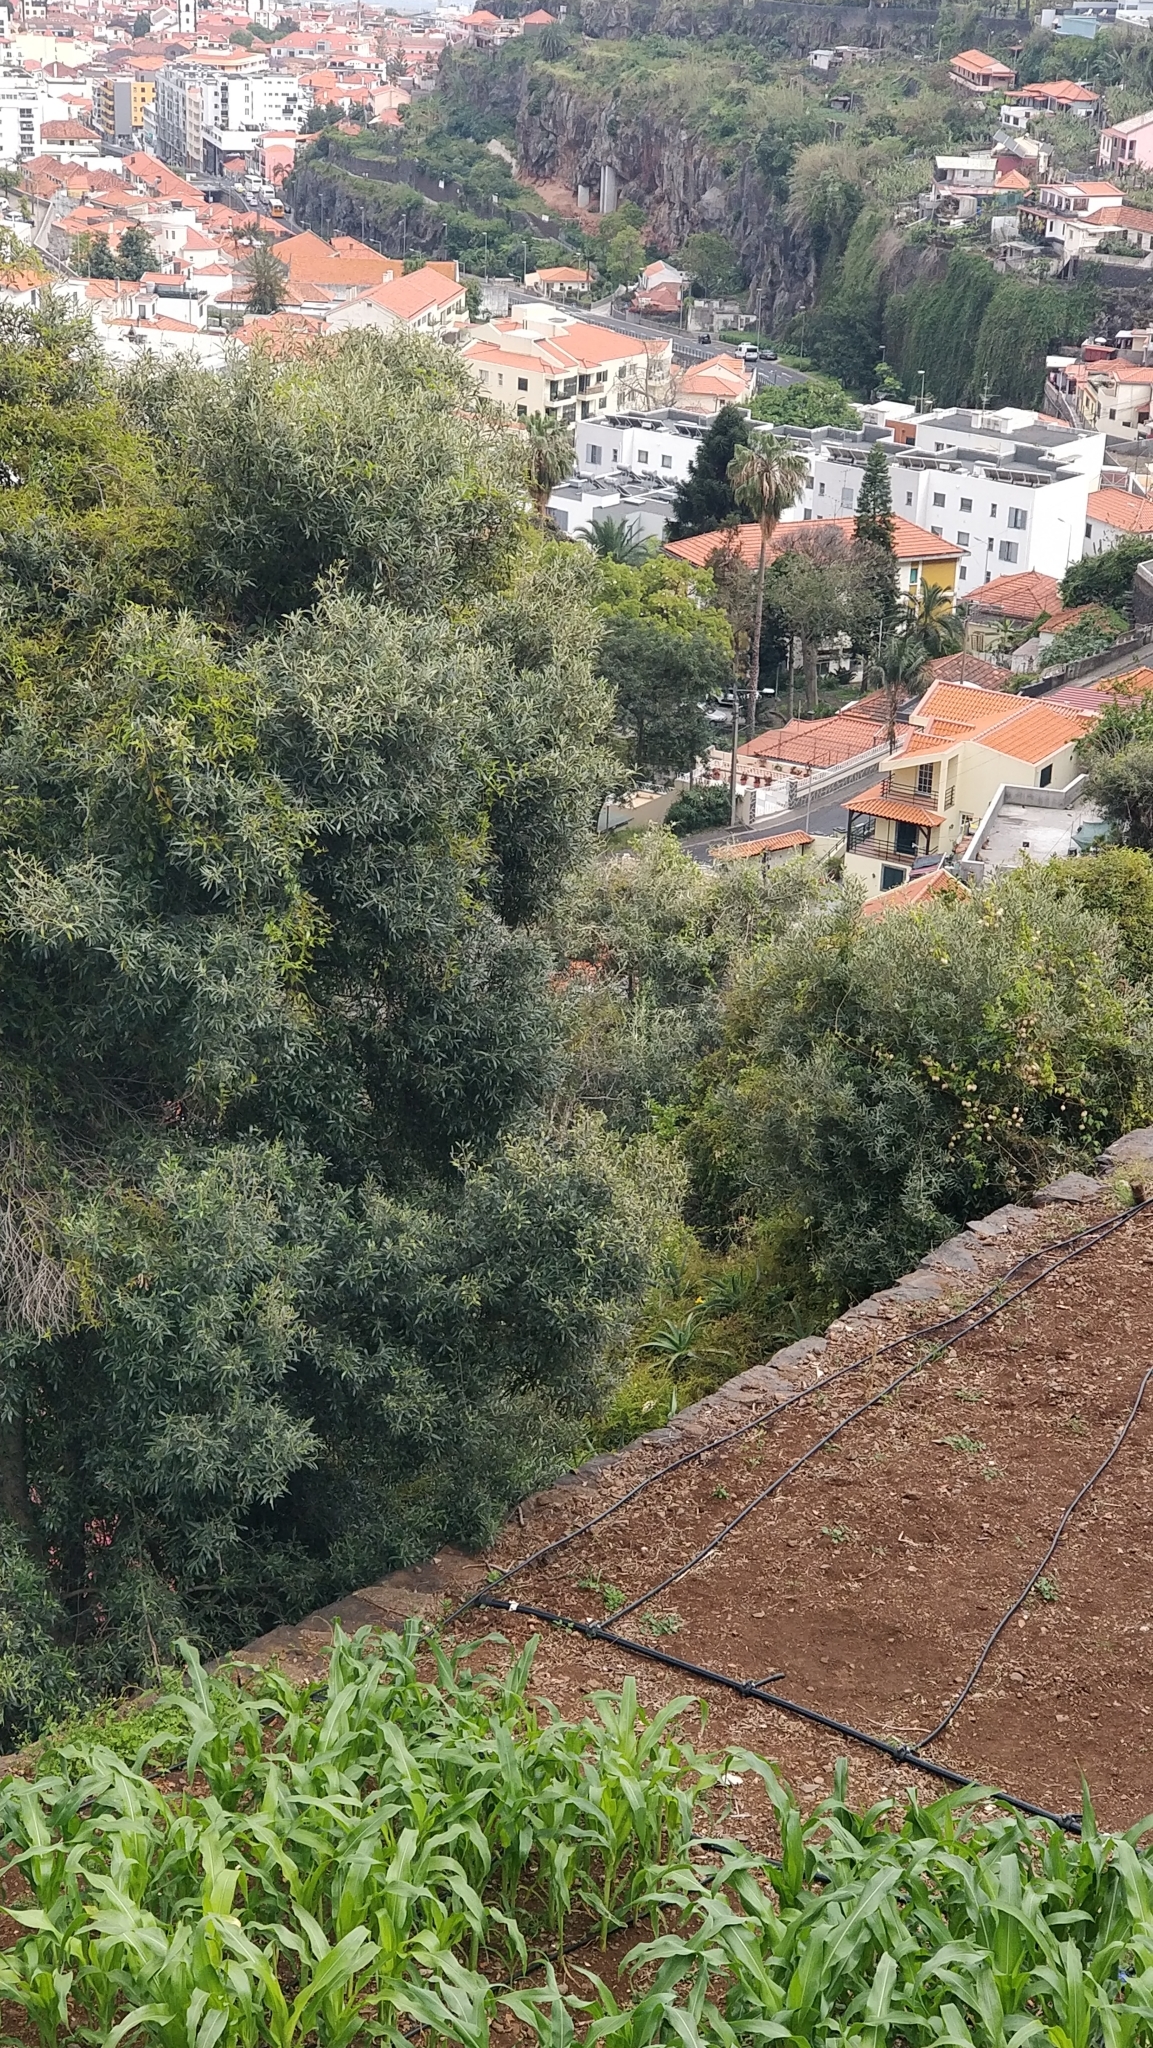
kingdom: Plantae
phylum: Tracheophyta
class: Magnoliopsida
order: Lamiales
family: Oleaceae
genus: Olea
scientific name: Olea europaea
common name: Olive
